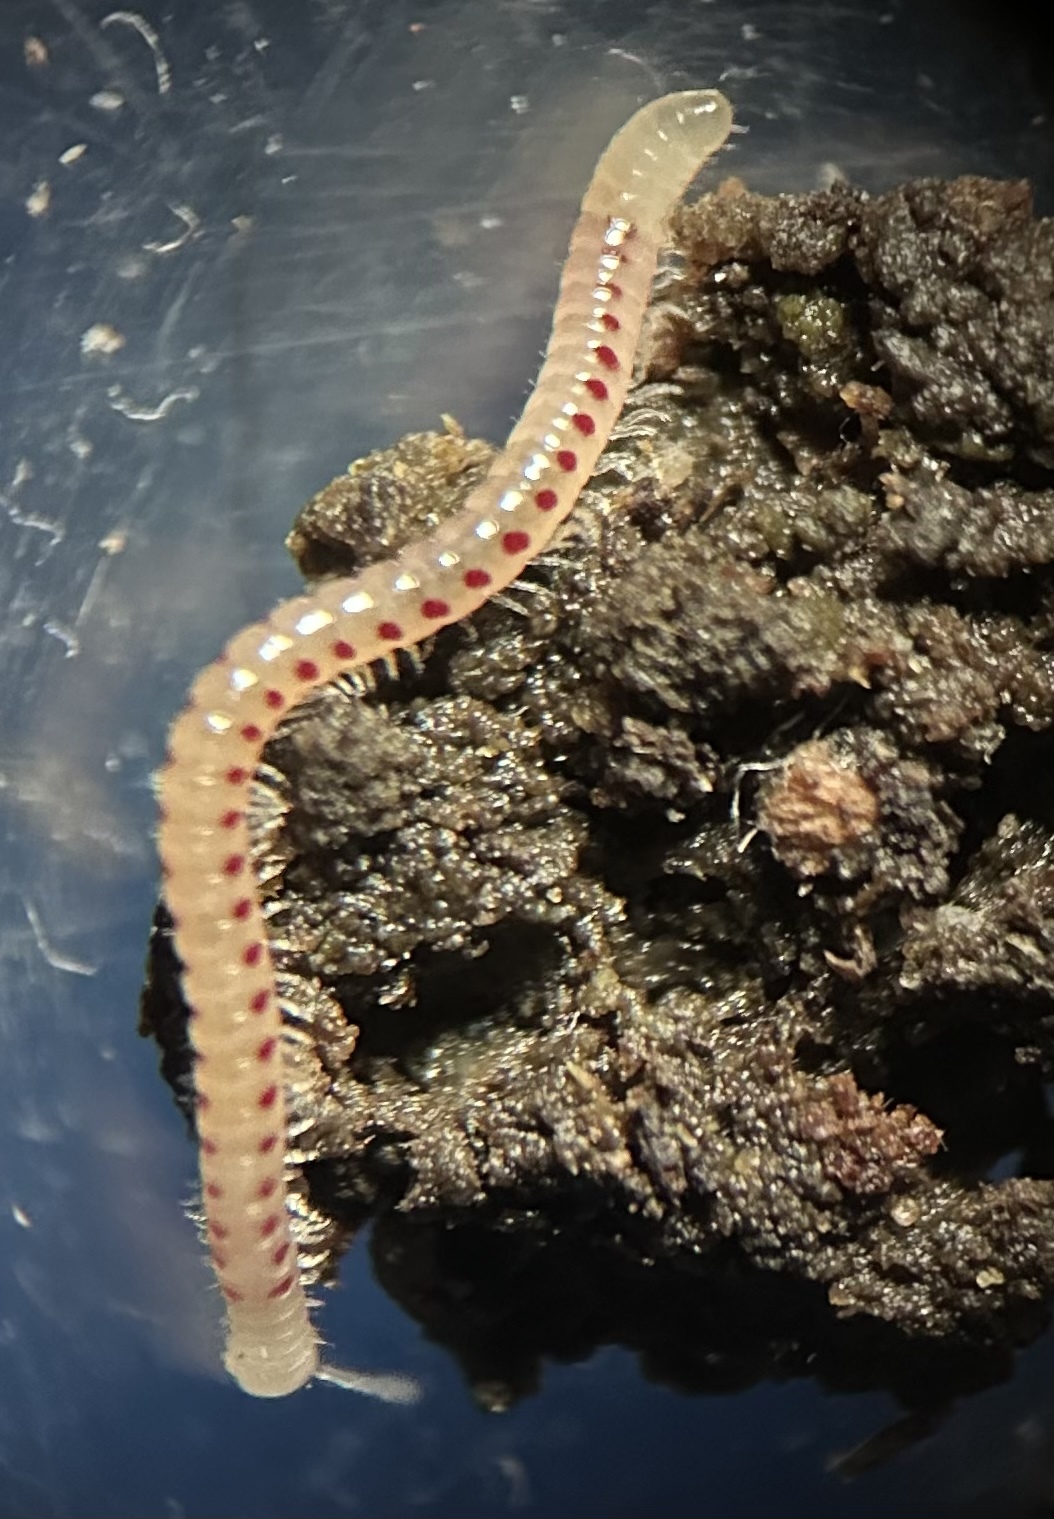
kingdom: Animalia
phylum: Arthropoda
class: Diplopoda
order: Julida
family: Blaniulidae
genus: Blaniulus
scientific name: Blaniulus guttulatus
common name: Spotted snake millipede
